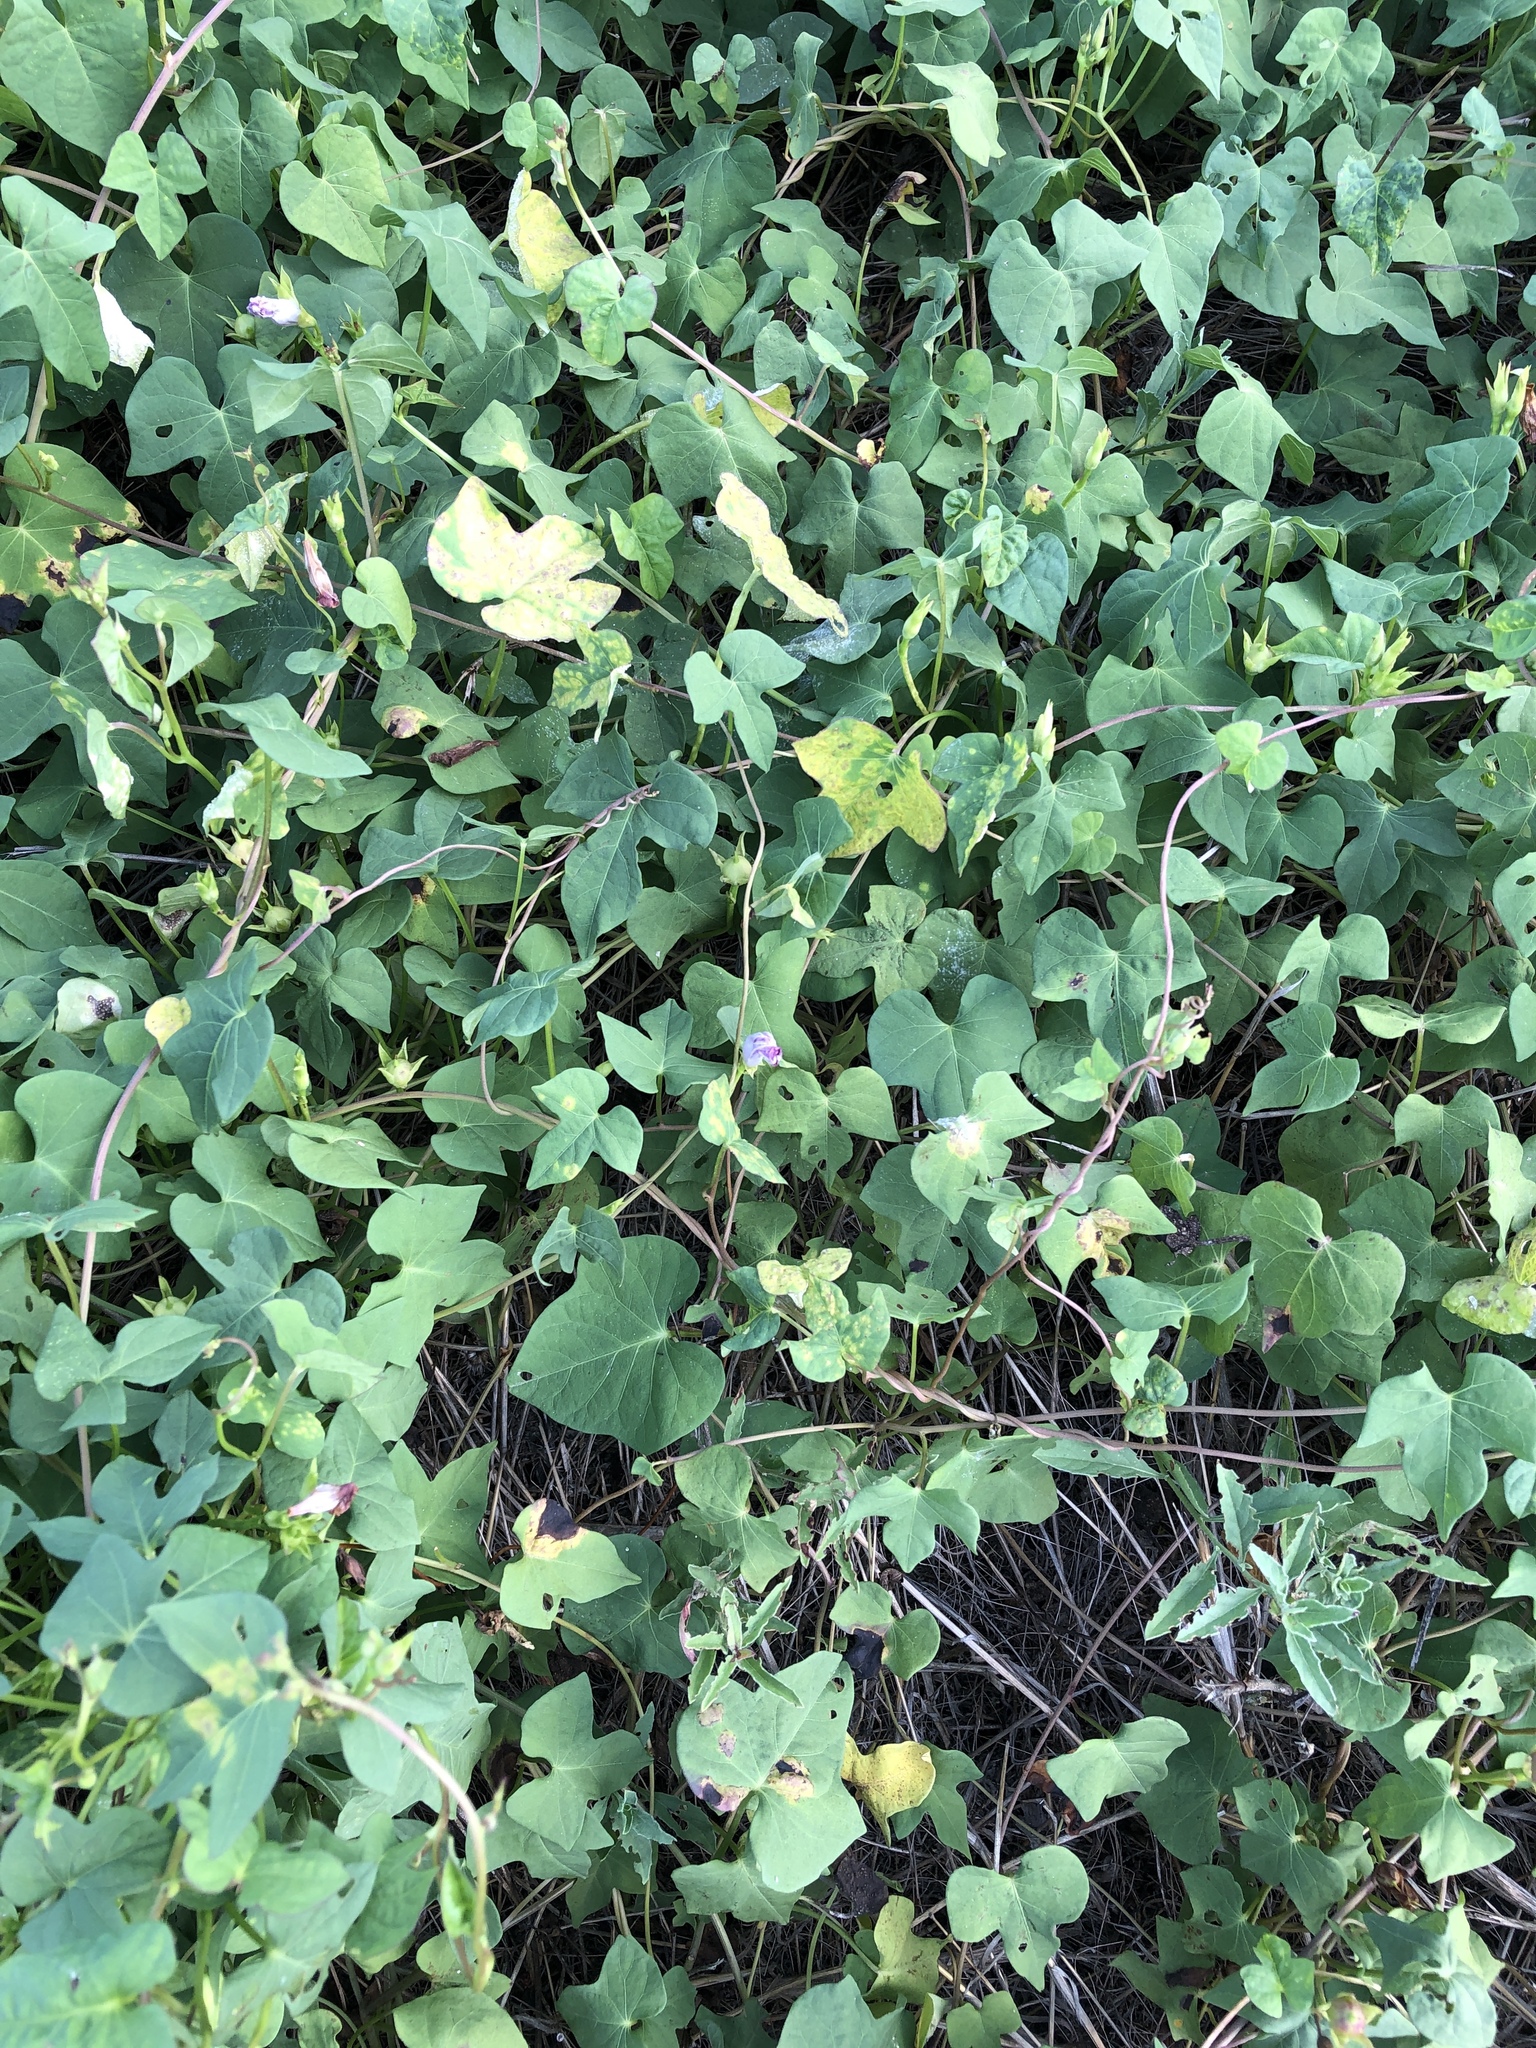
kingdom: Plantae
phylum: Tracheophyta
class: Magnoliopsida
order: Solanales
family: Convolvulaceae
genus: Ipomoea
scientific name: Ipomoea cordatotriloba
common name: Cotton morning glory
